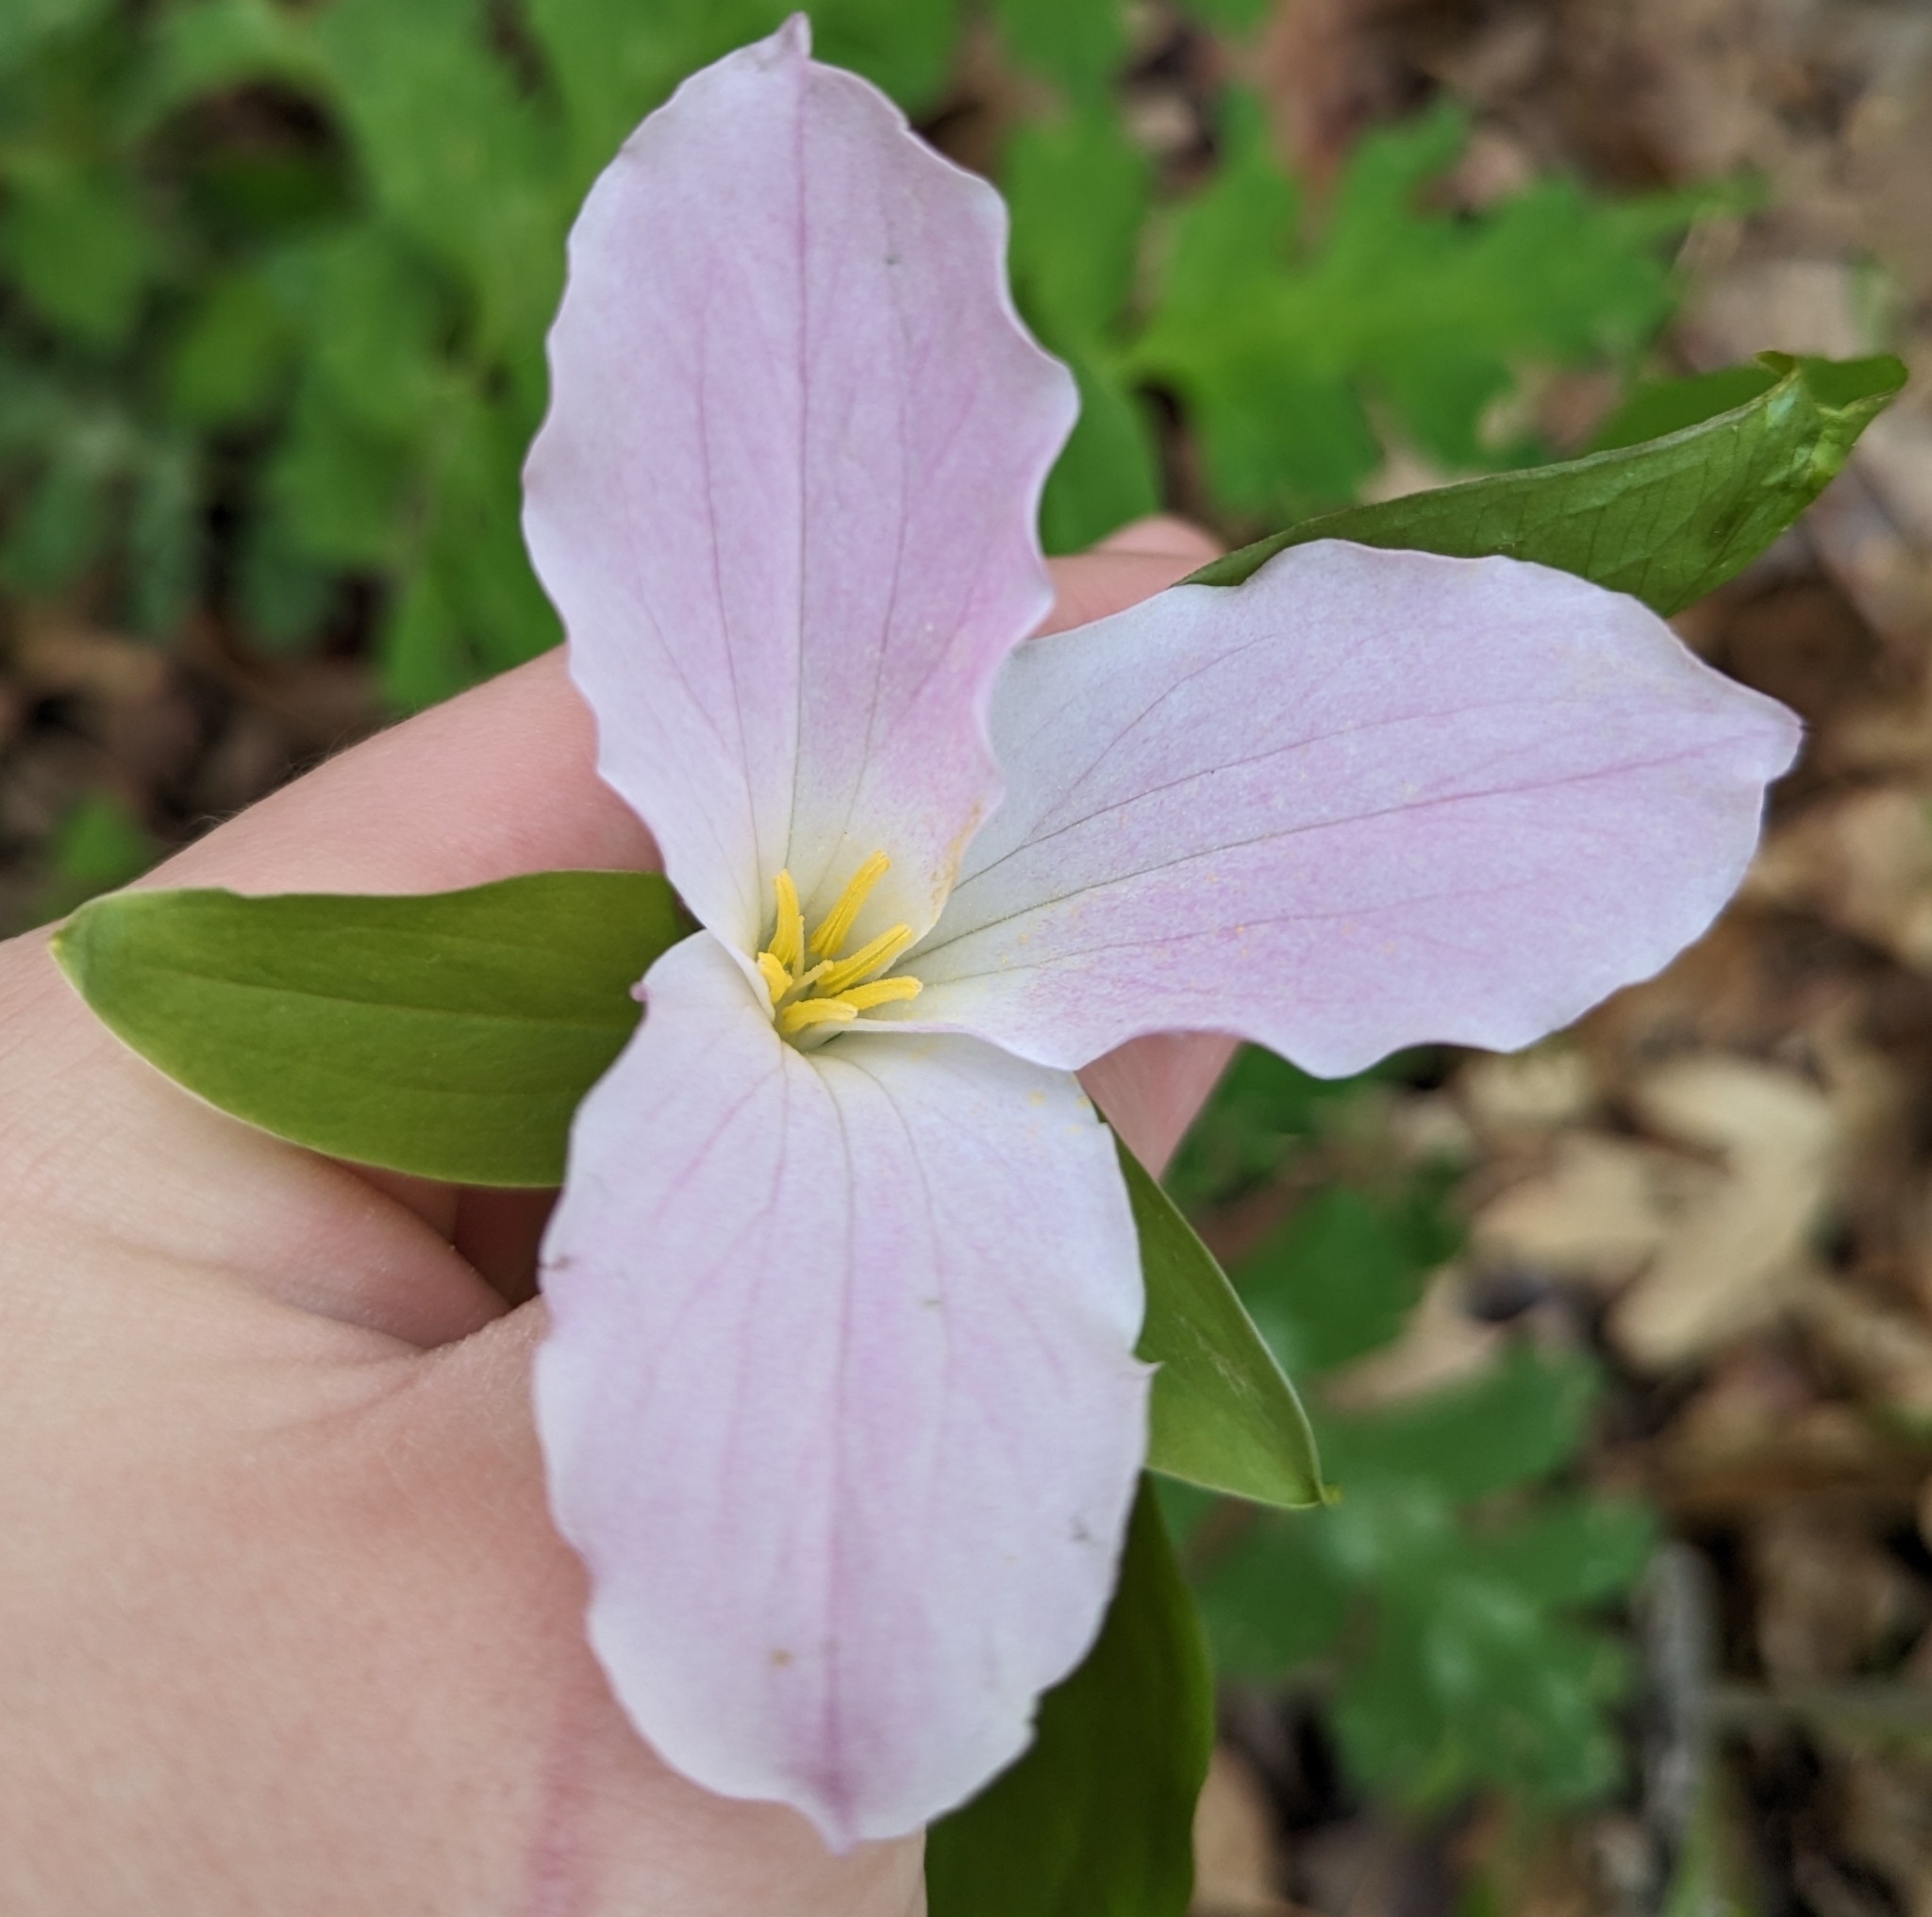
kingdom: Plantae
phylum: Tracheophyta
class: Liliopsida
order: Liliales
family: Melanthiaceae
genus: Trillium
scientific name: Trillium grandiflorum
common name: Great white trillium
